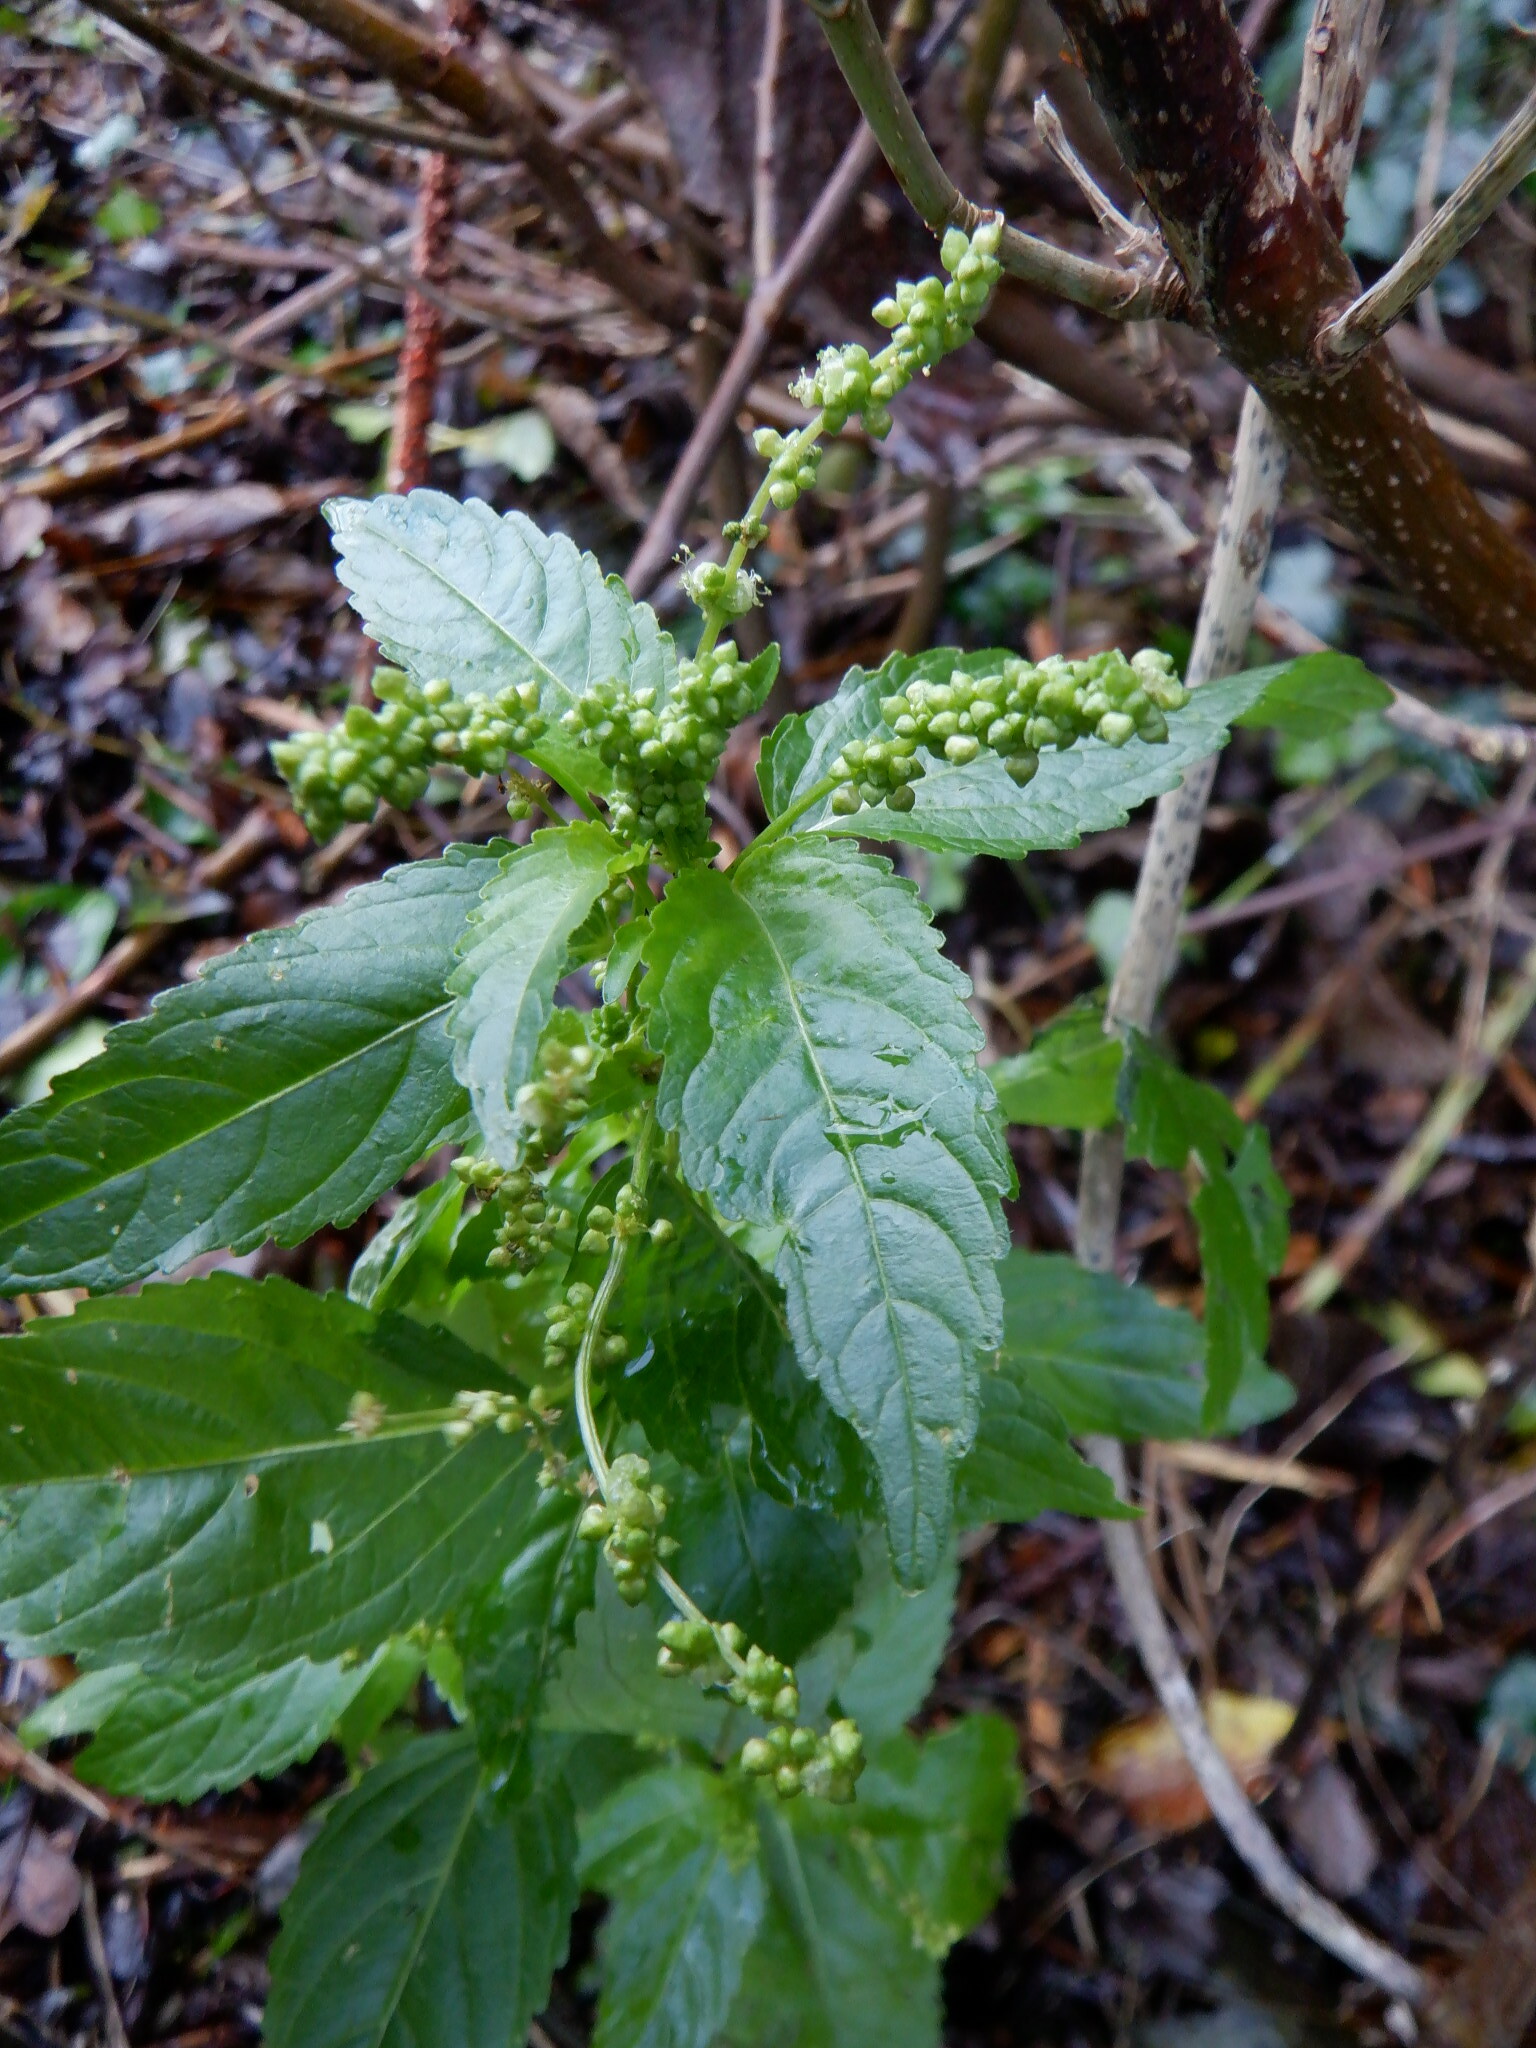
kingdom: Plantae
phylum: Tracheophyta
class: Magnoliopsida
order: Malpighiales
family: Euphorbiaceae
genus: Mercurialis
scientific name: Mercurialis annua
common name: Annual mercury
